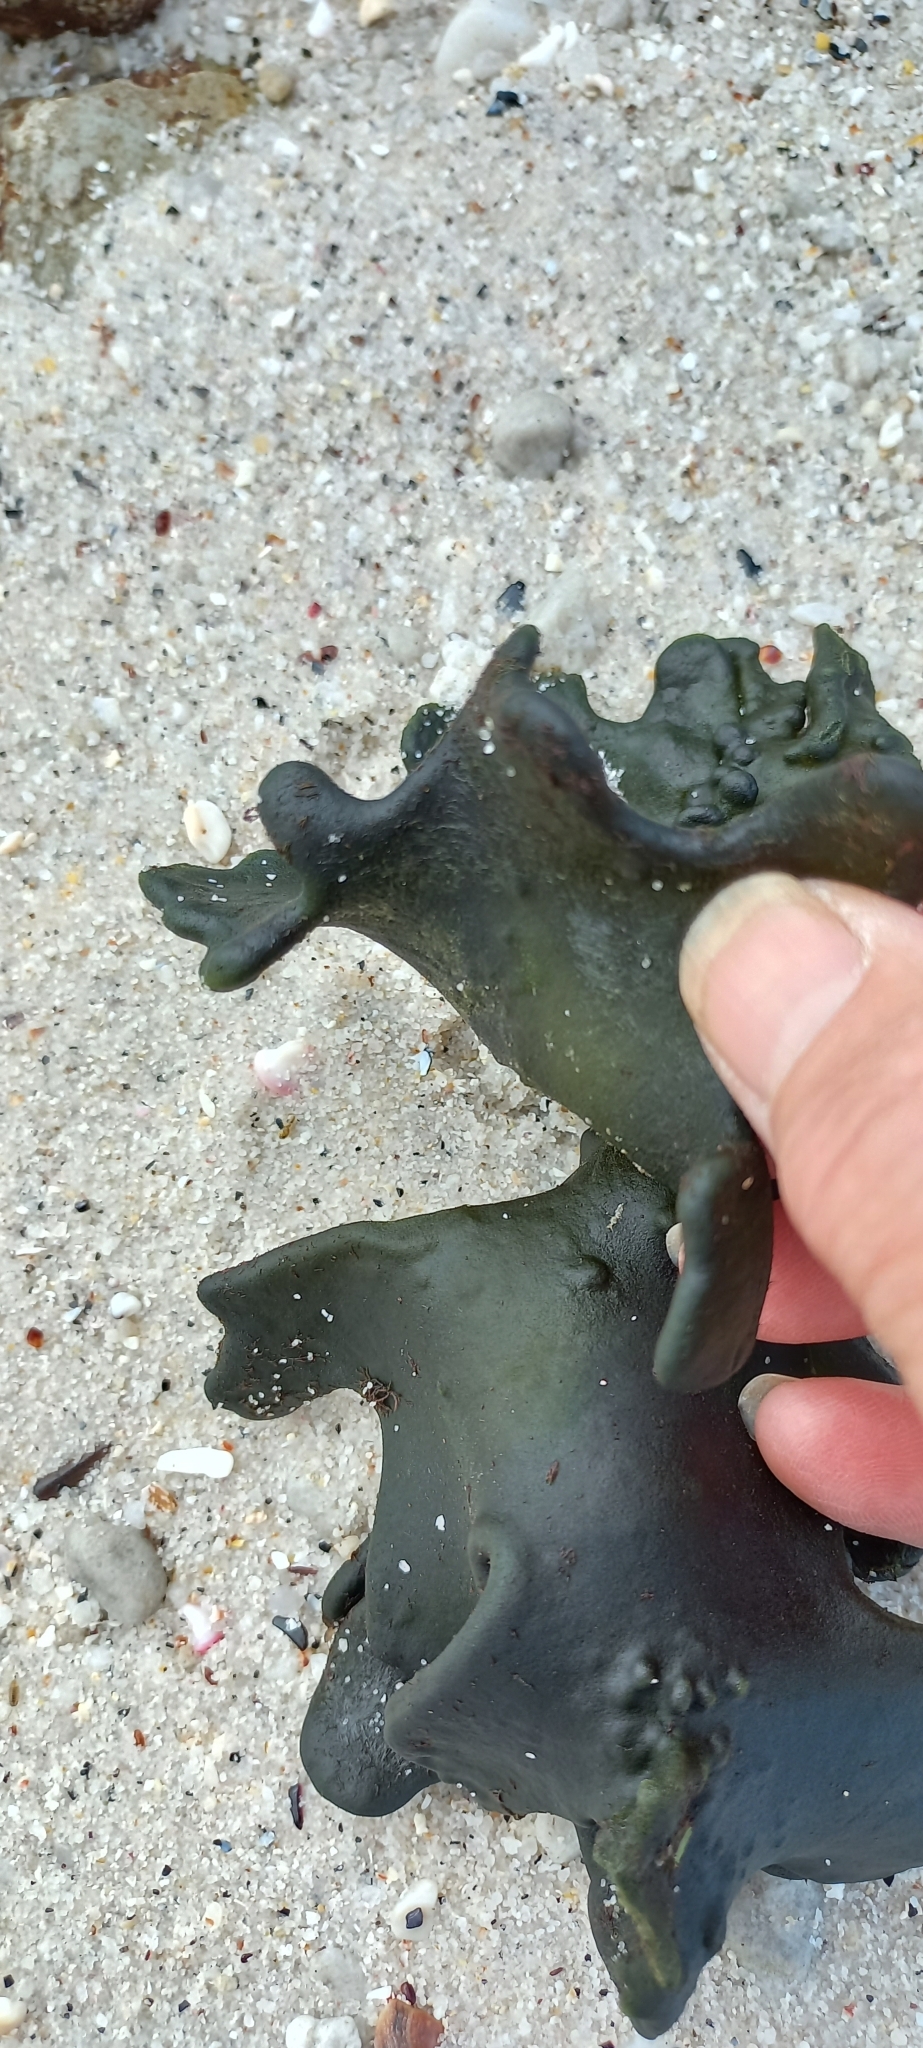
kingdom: Plantae
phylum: Chlorophyta
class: Ulvophyceae
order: Bryopsidales
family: Codiaceae
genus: Codium
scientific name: Codium
